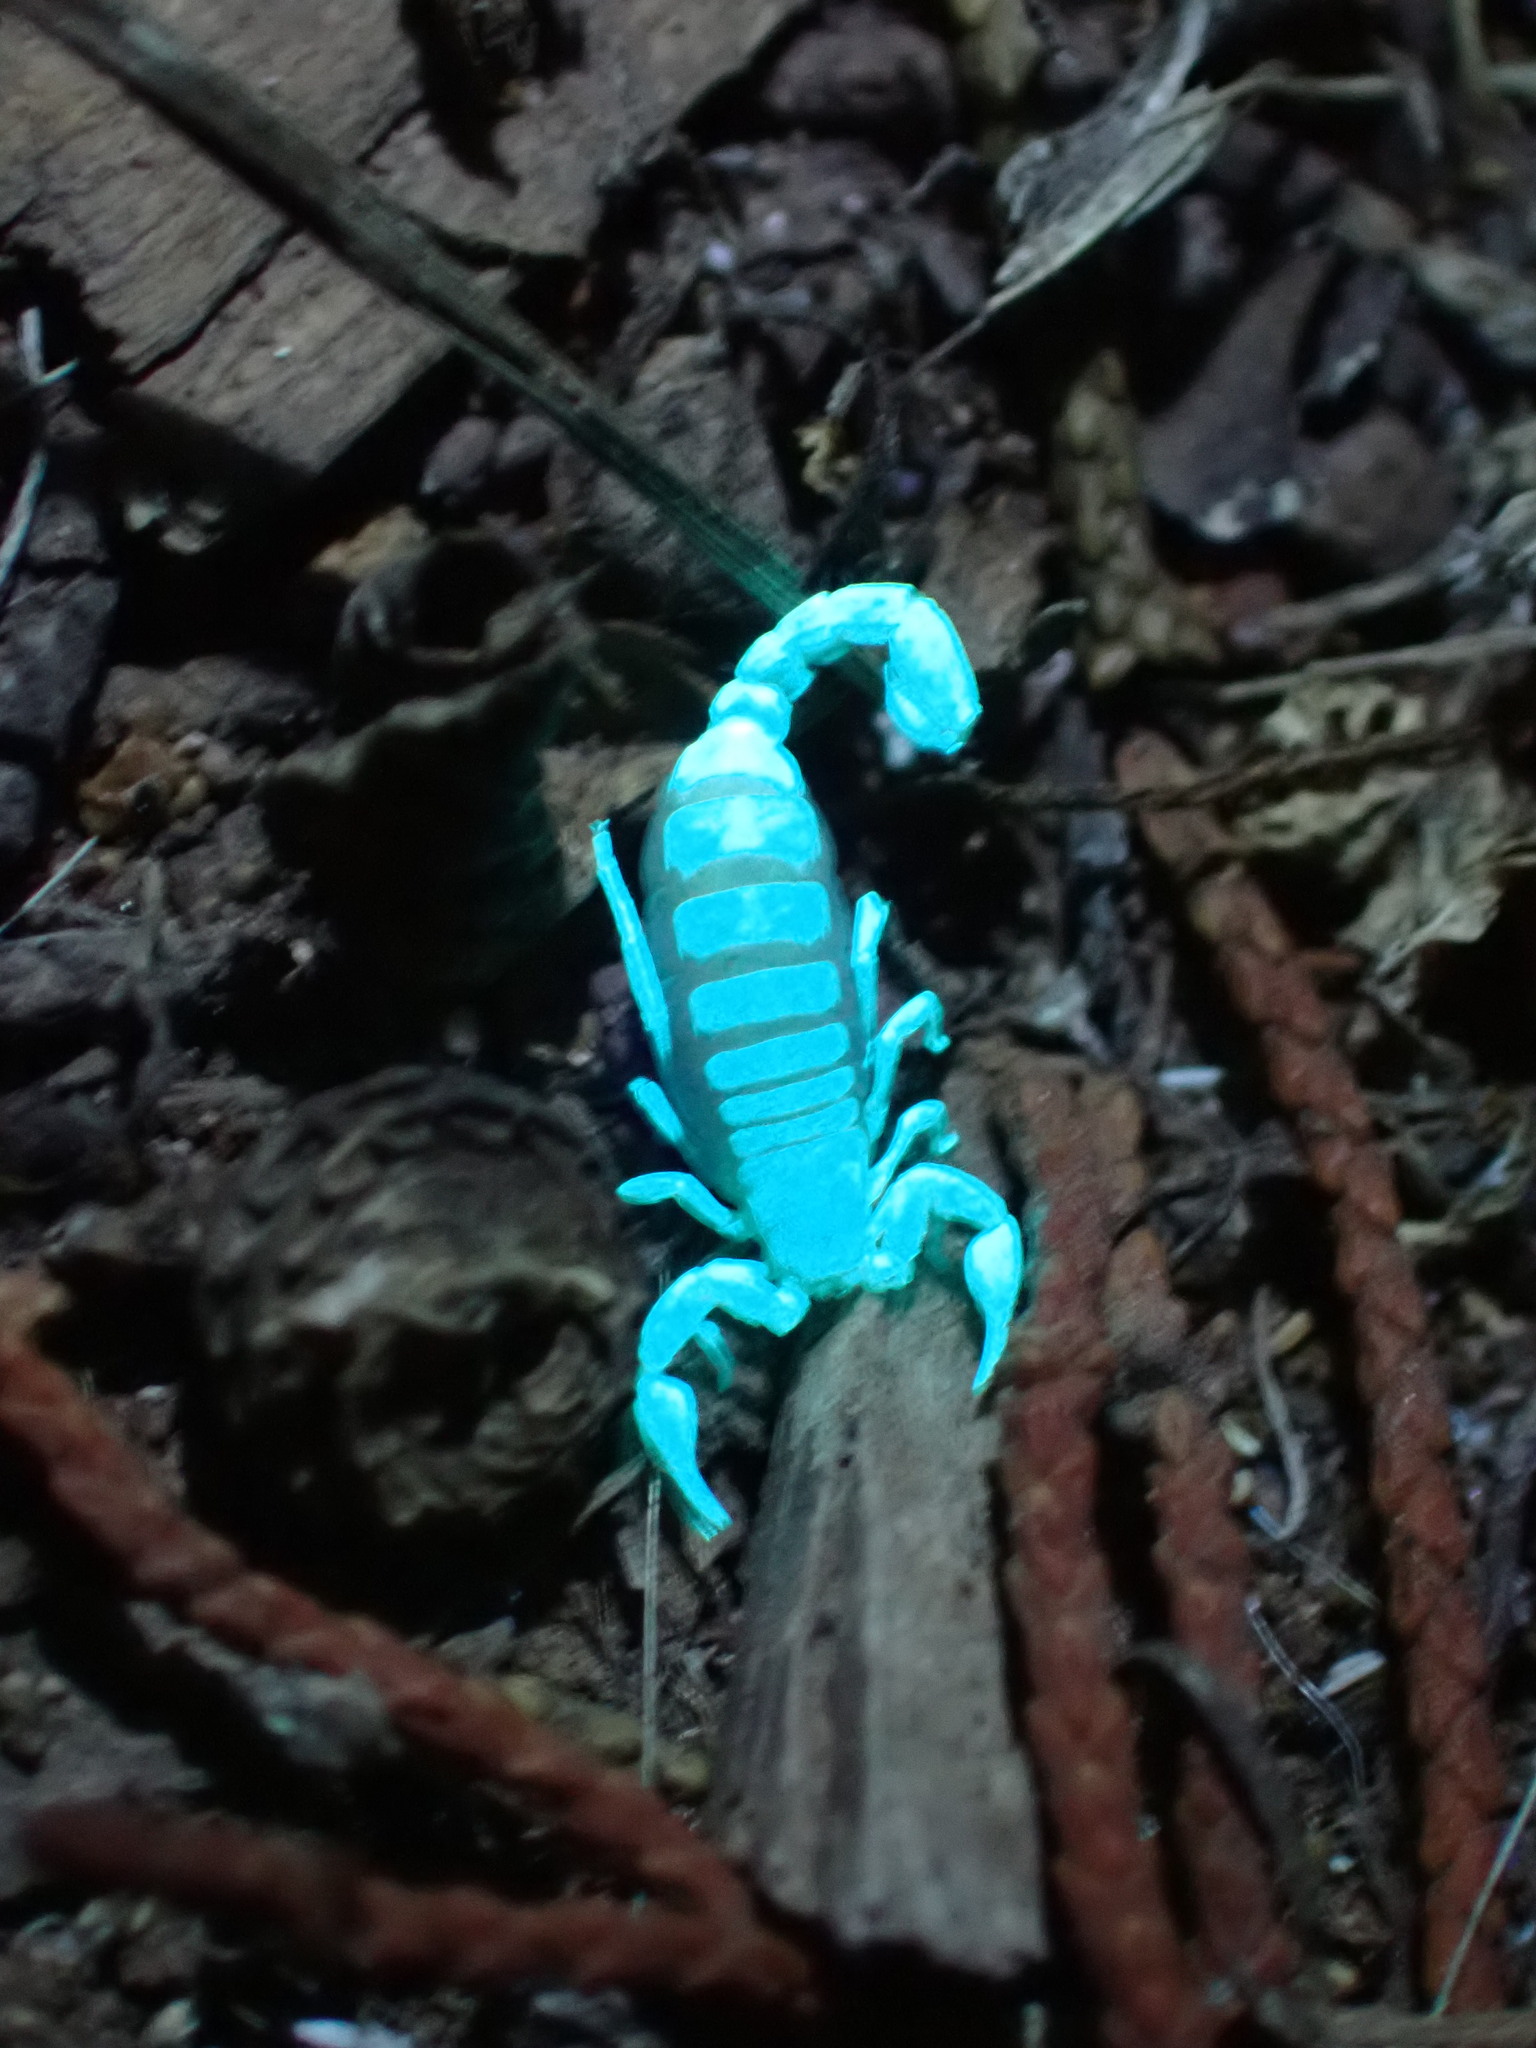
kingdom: Animalia
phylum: Arthropoda
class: Arachnida
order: Scorpiones
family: Vaejovidae
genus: Catalinia
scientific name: Catalinia thompsoni
